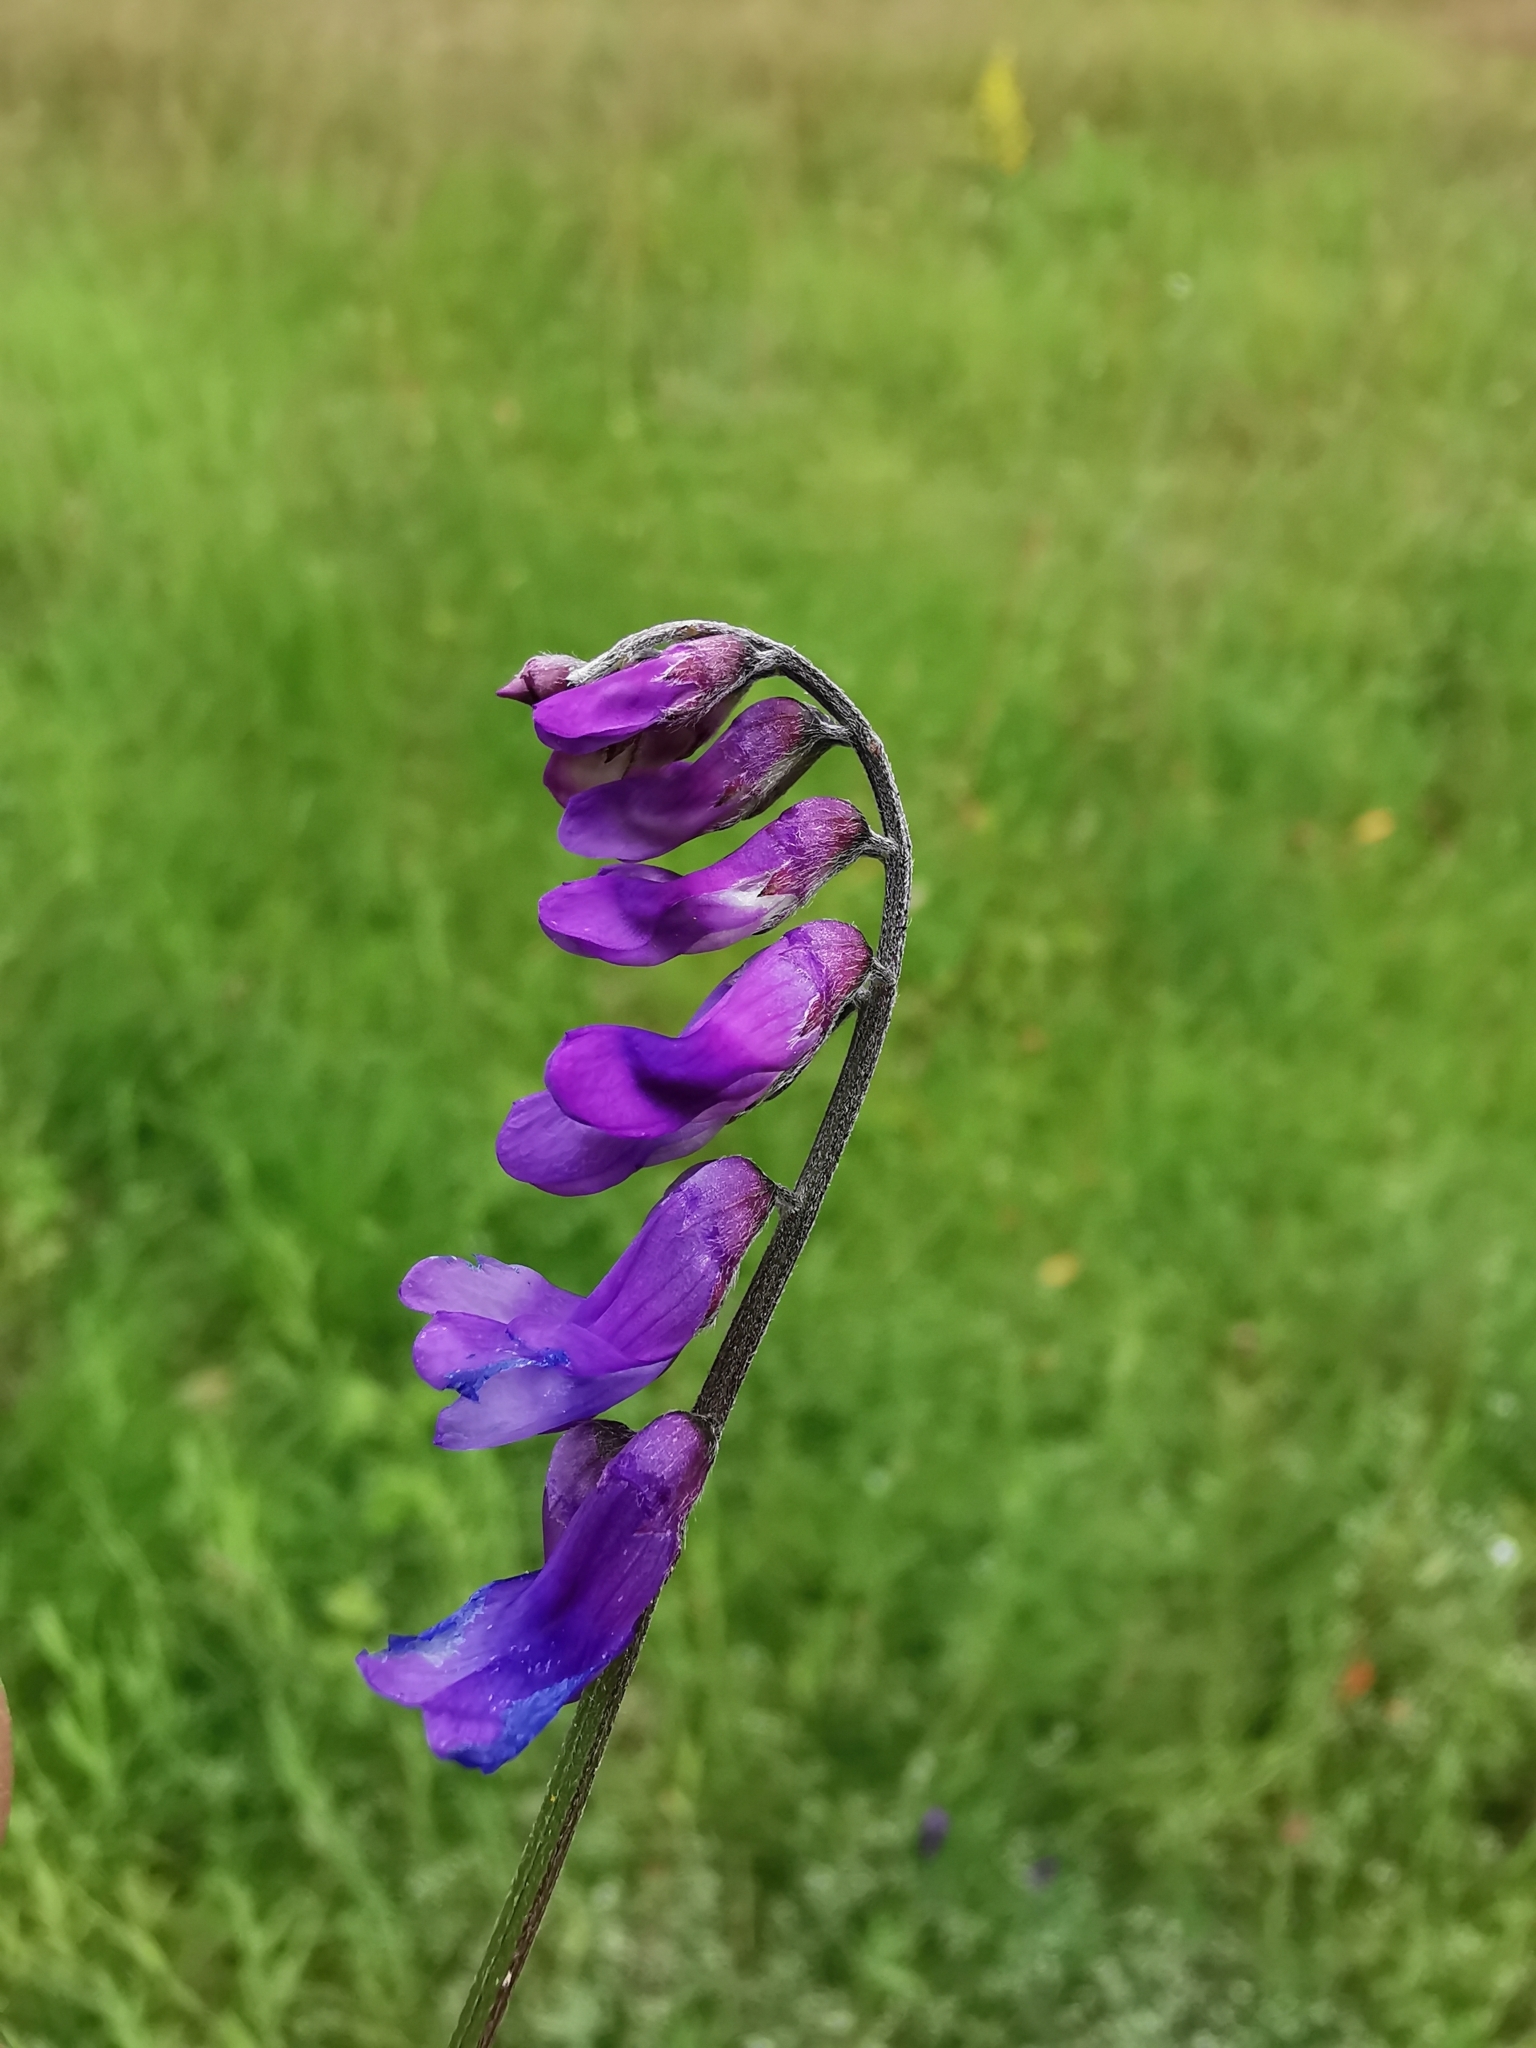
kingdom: Plantae
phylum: Tracheophyta
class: Magnoliopsida
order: Fabales
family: Fabaceae
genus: Vicia
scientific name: Vicia cracca
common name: Bird vetch
